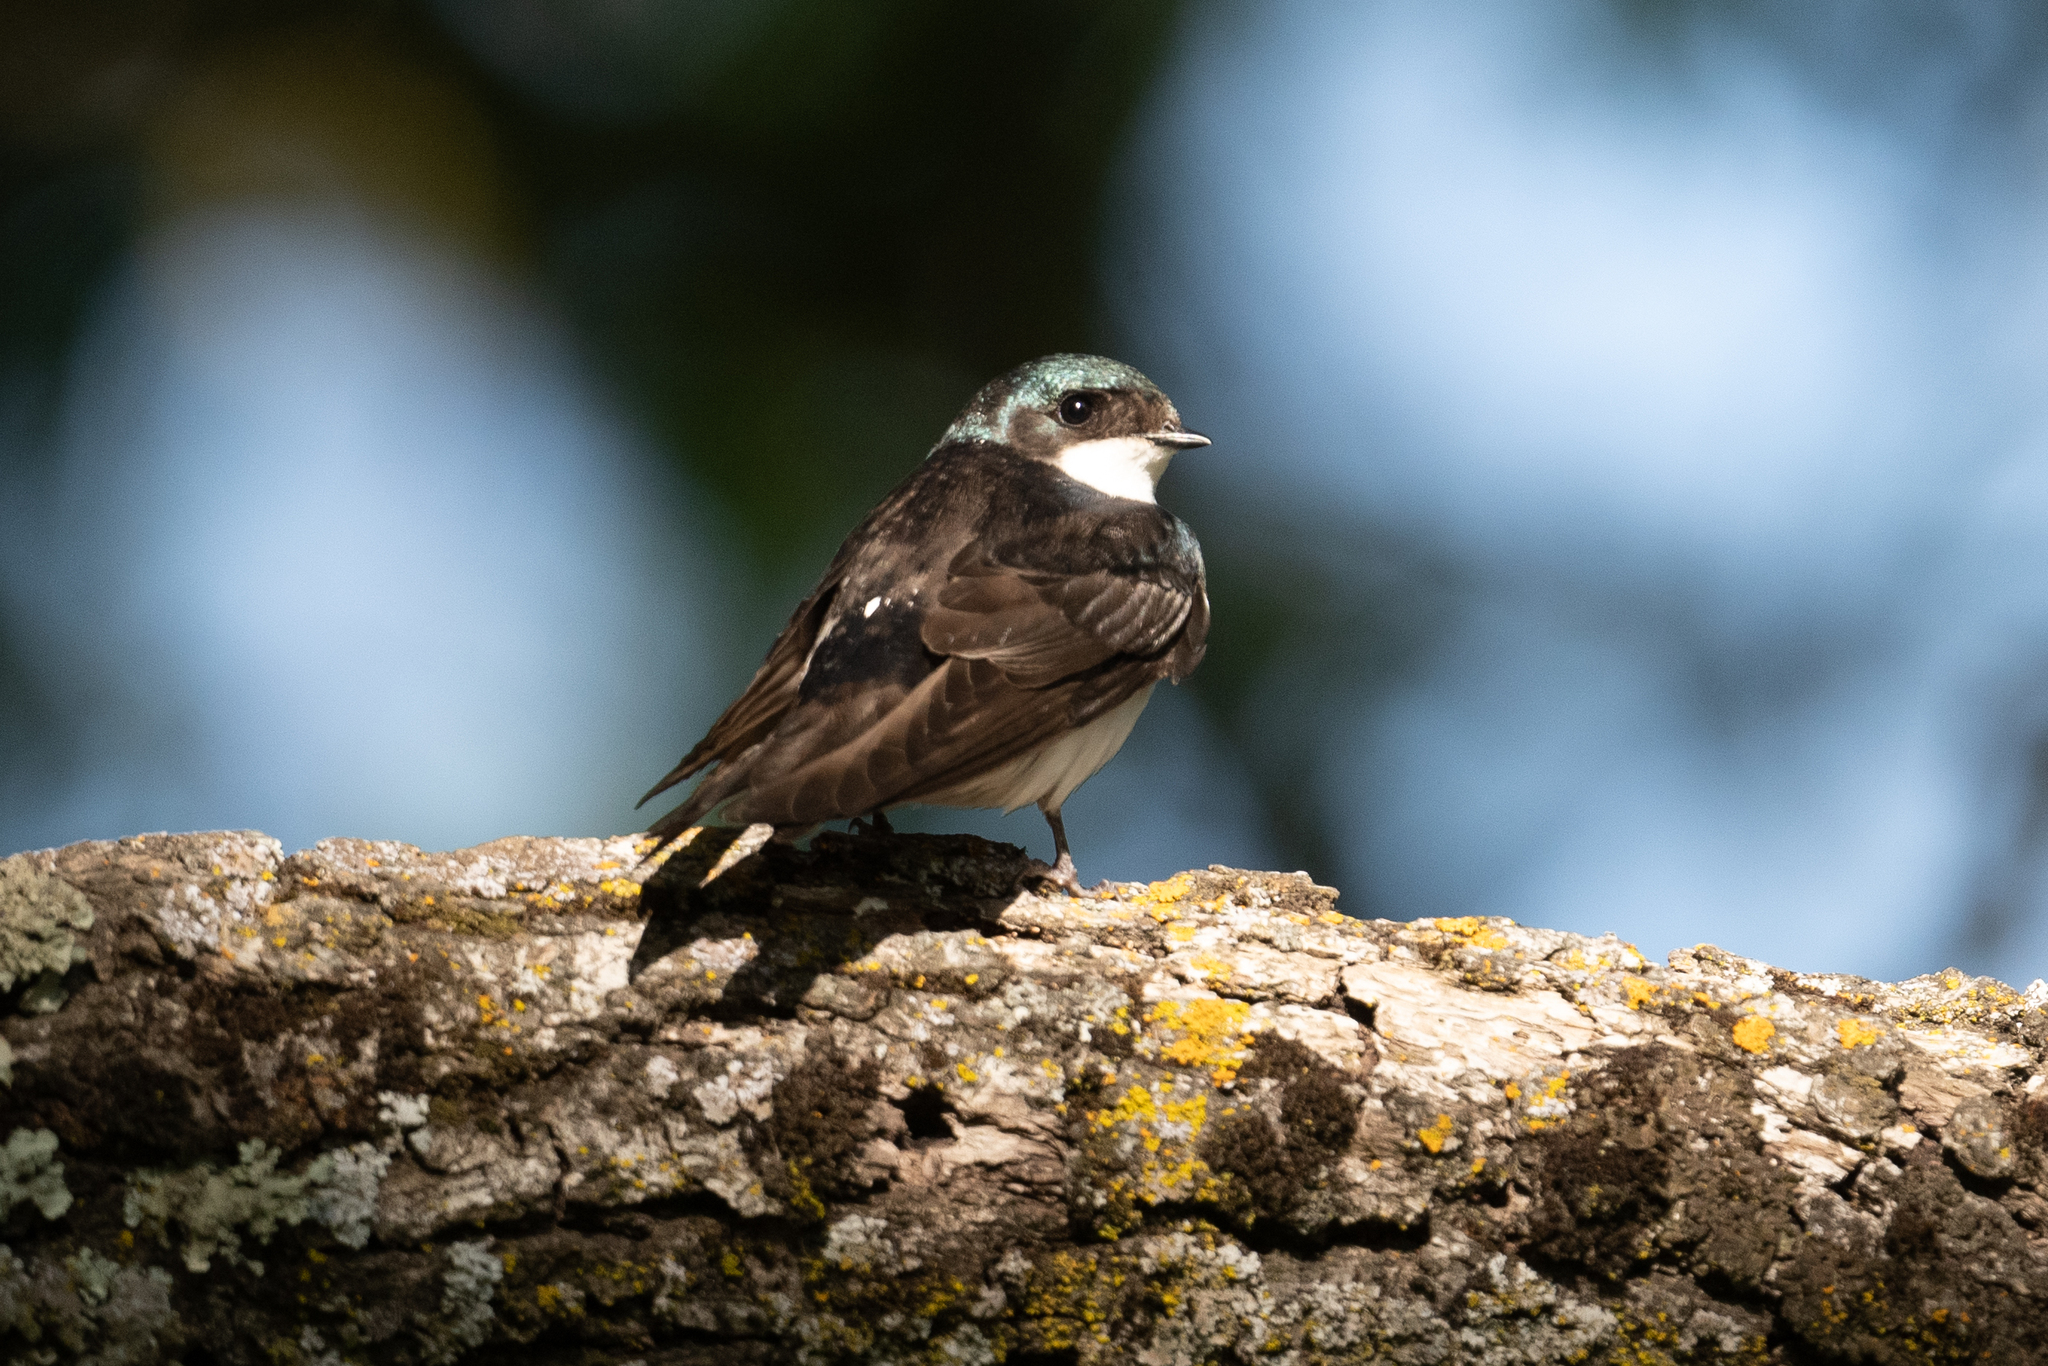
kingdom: Animalia
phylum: Chordata
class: Aves
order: Passeriformes
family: Hirundinidae
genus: Tachycineta
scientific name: Tachycineta bicolor
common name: Tree swallow
